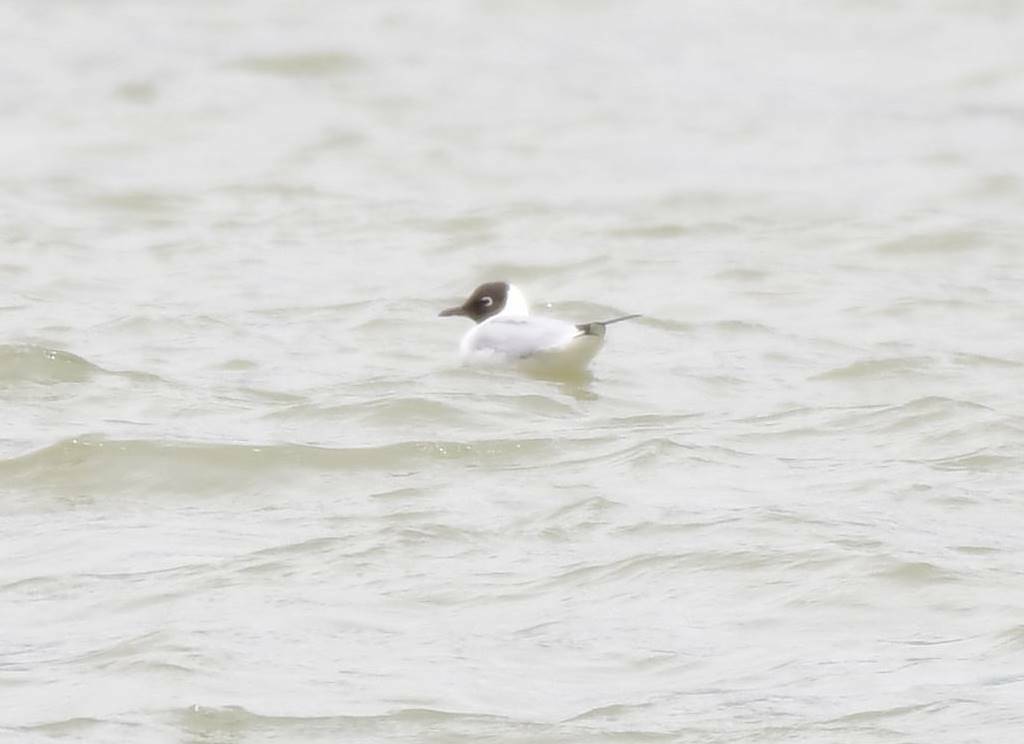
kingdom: Animalia
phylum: Chordata
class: Aves
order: Charadriiformes
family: Laridae
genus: Chroicocephalus
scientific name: Chroicocephalus ridibundus
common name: Black-headed gull
